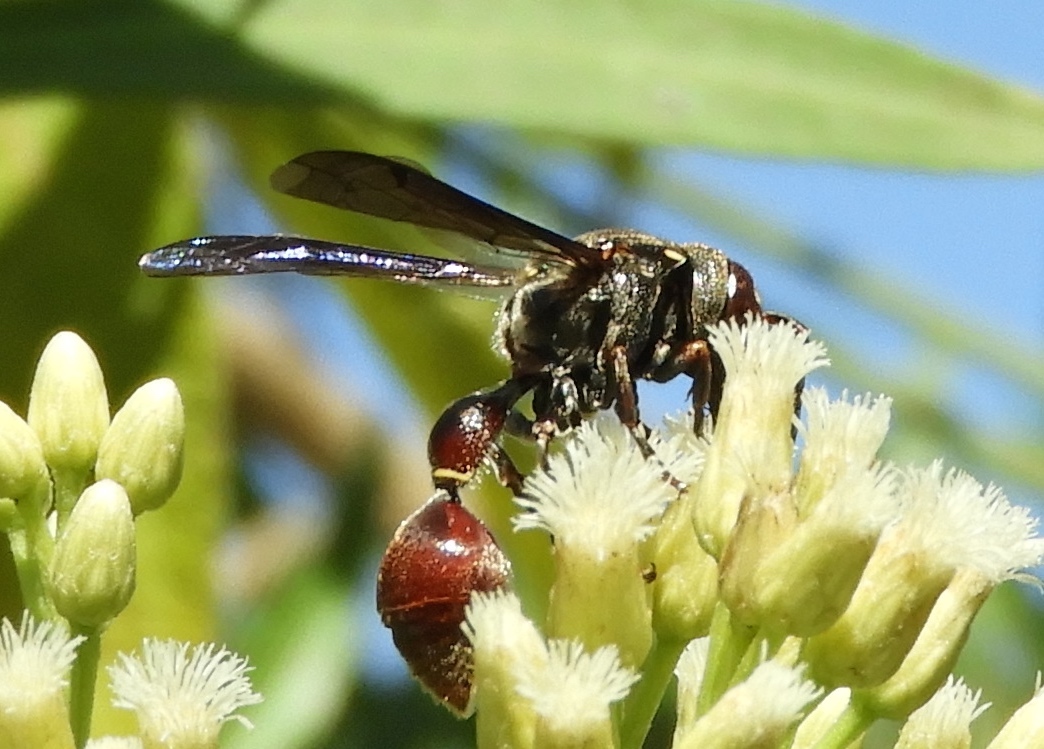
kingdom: Animalia
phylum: Arthropoda
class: Insecta
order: Hymenoptera
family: Eumenidae
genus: Zethus
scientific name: Zethus analis
